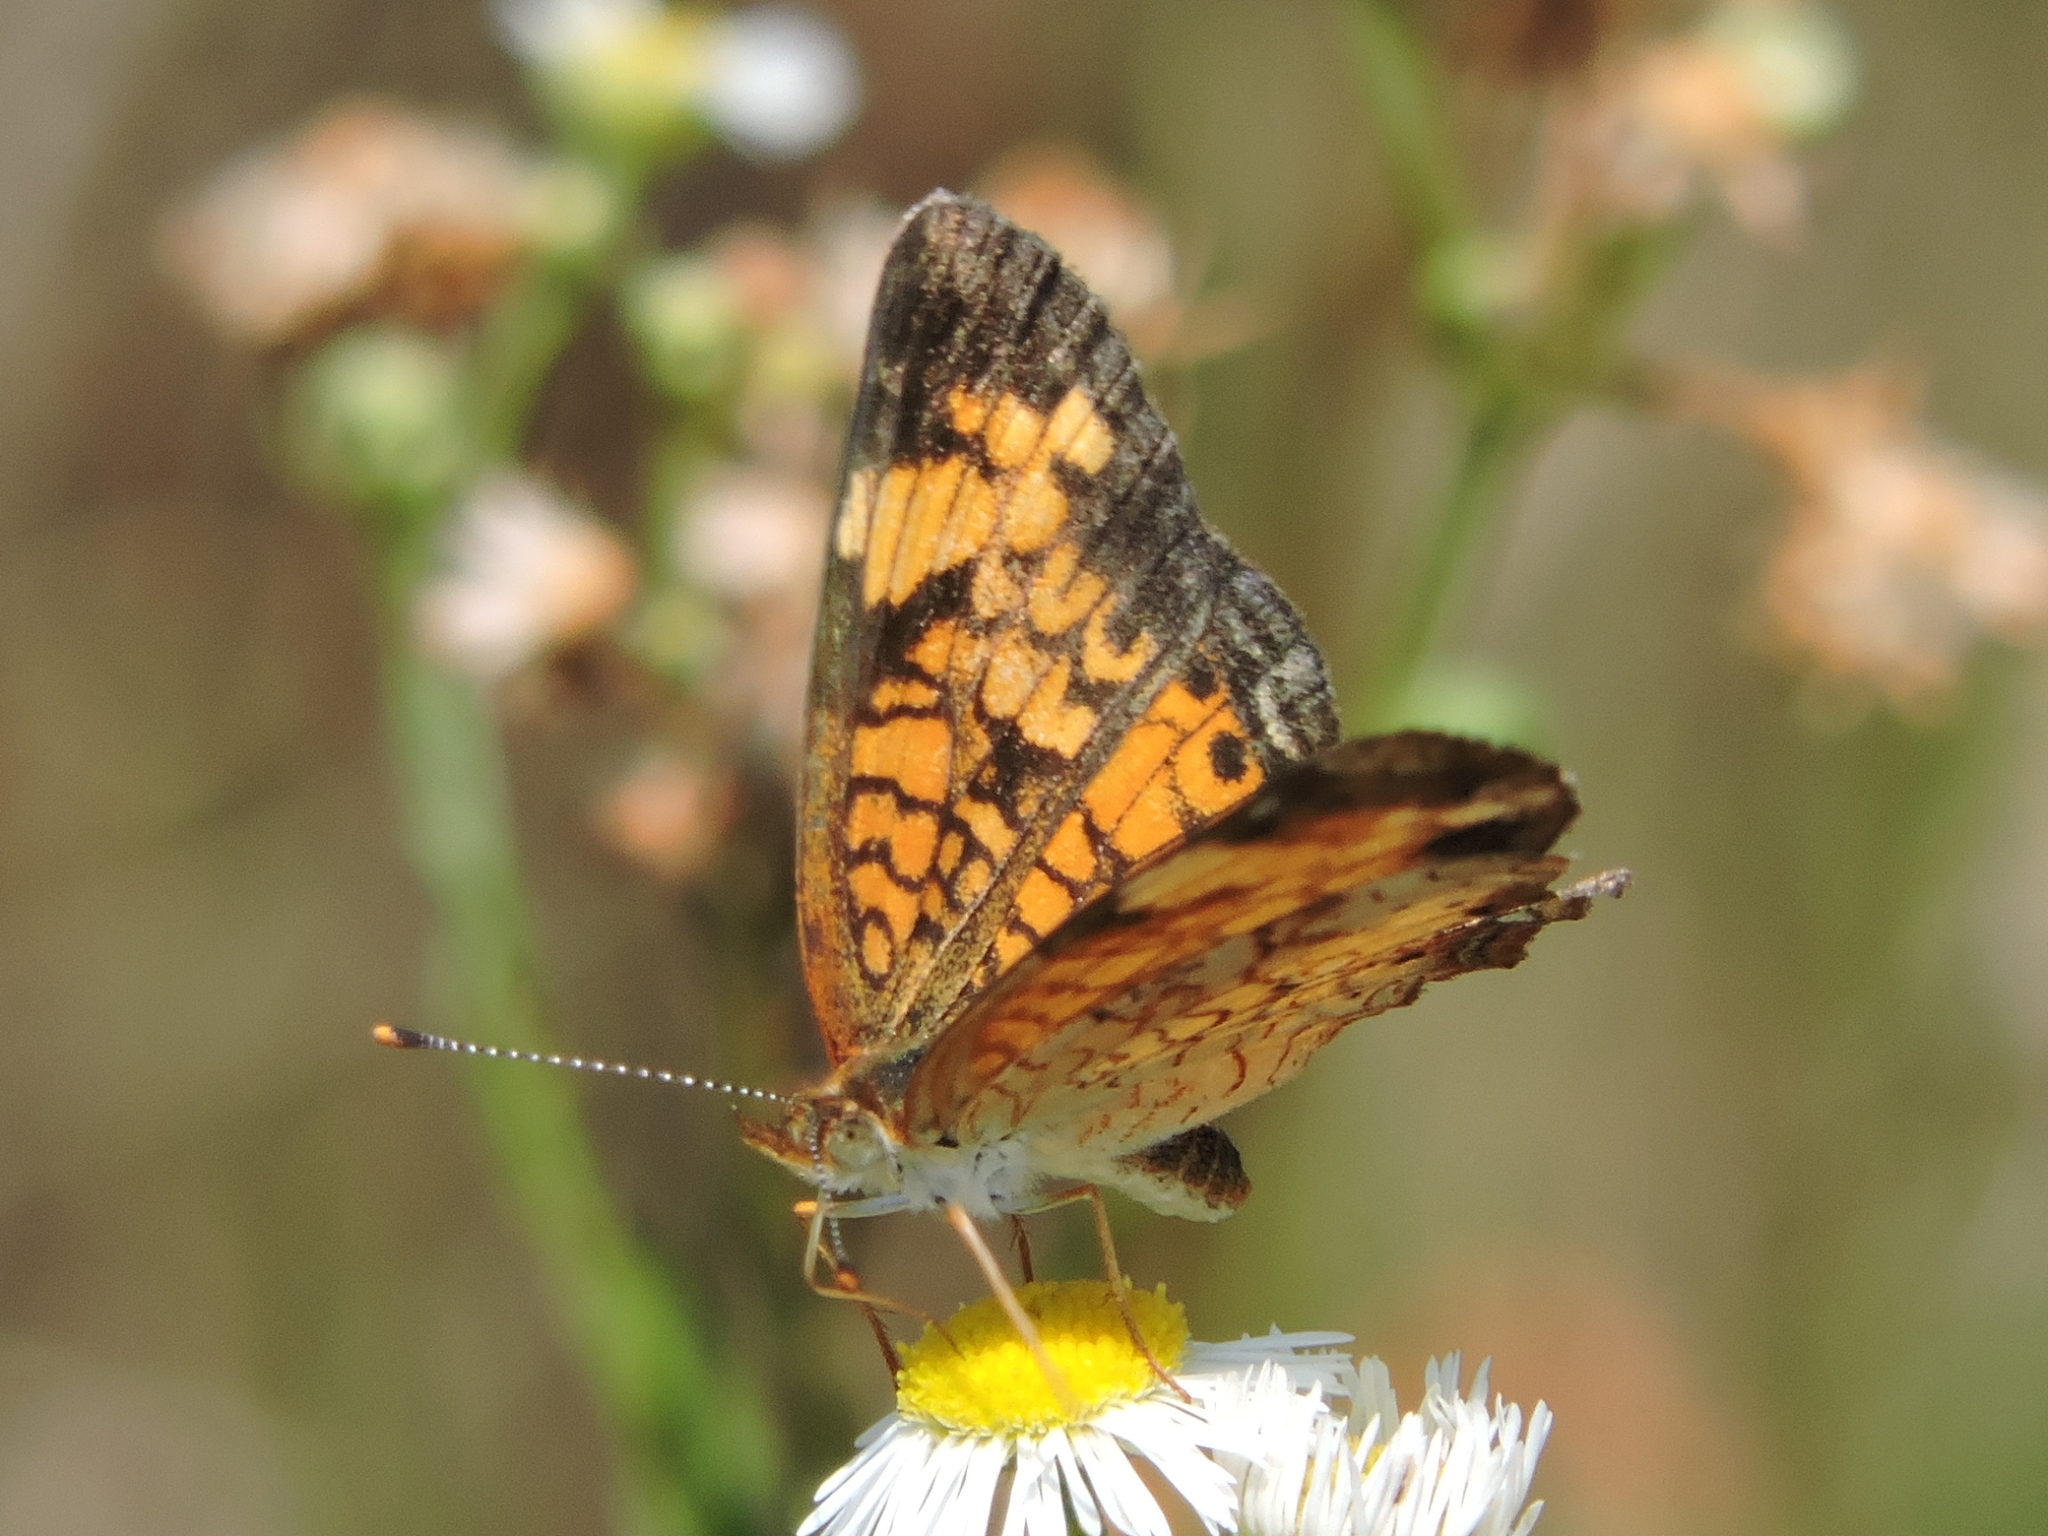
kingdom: Animalia
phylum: Arthropoda
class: Insecta
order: Lepidoptera
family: Nymphalidae
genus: Phyciodes
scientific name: Phyciodes tharos
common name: Pearl crescent
